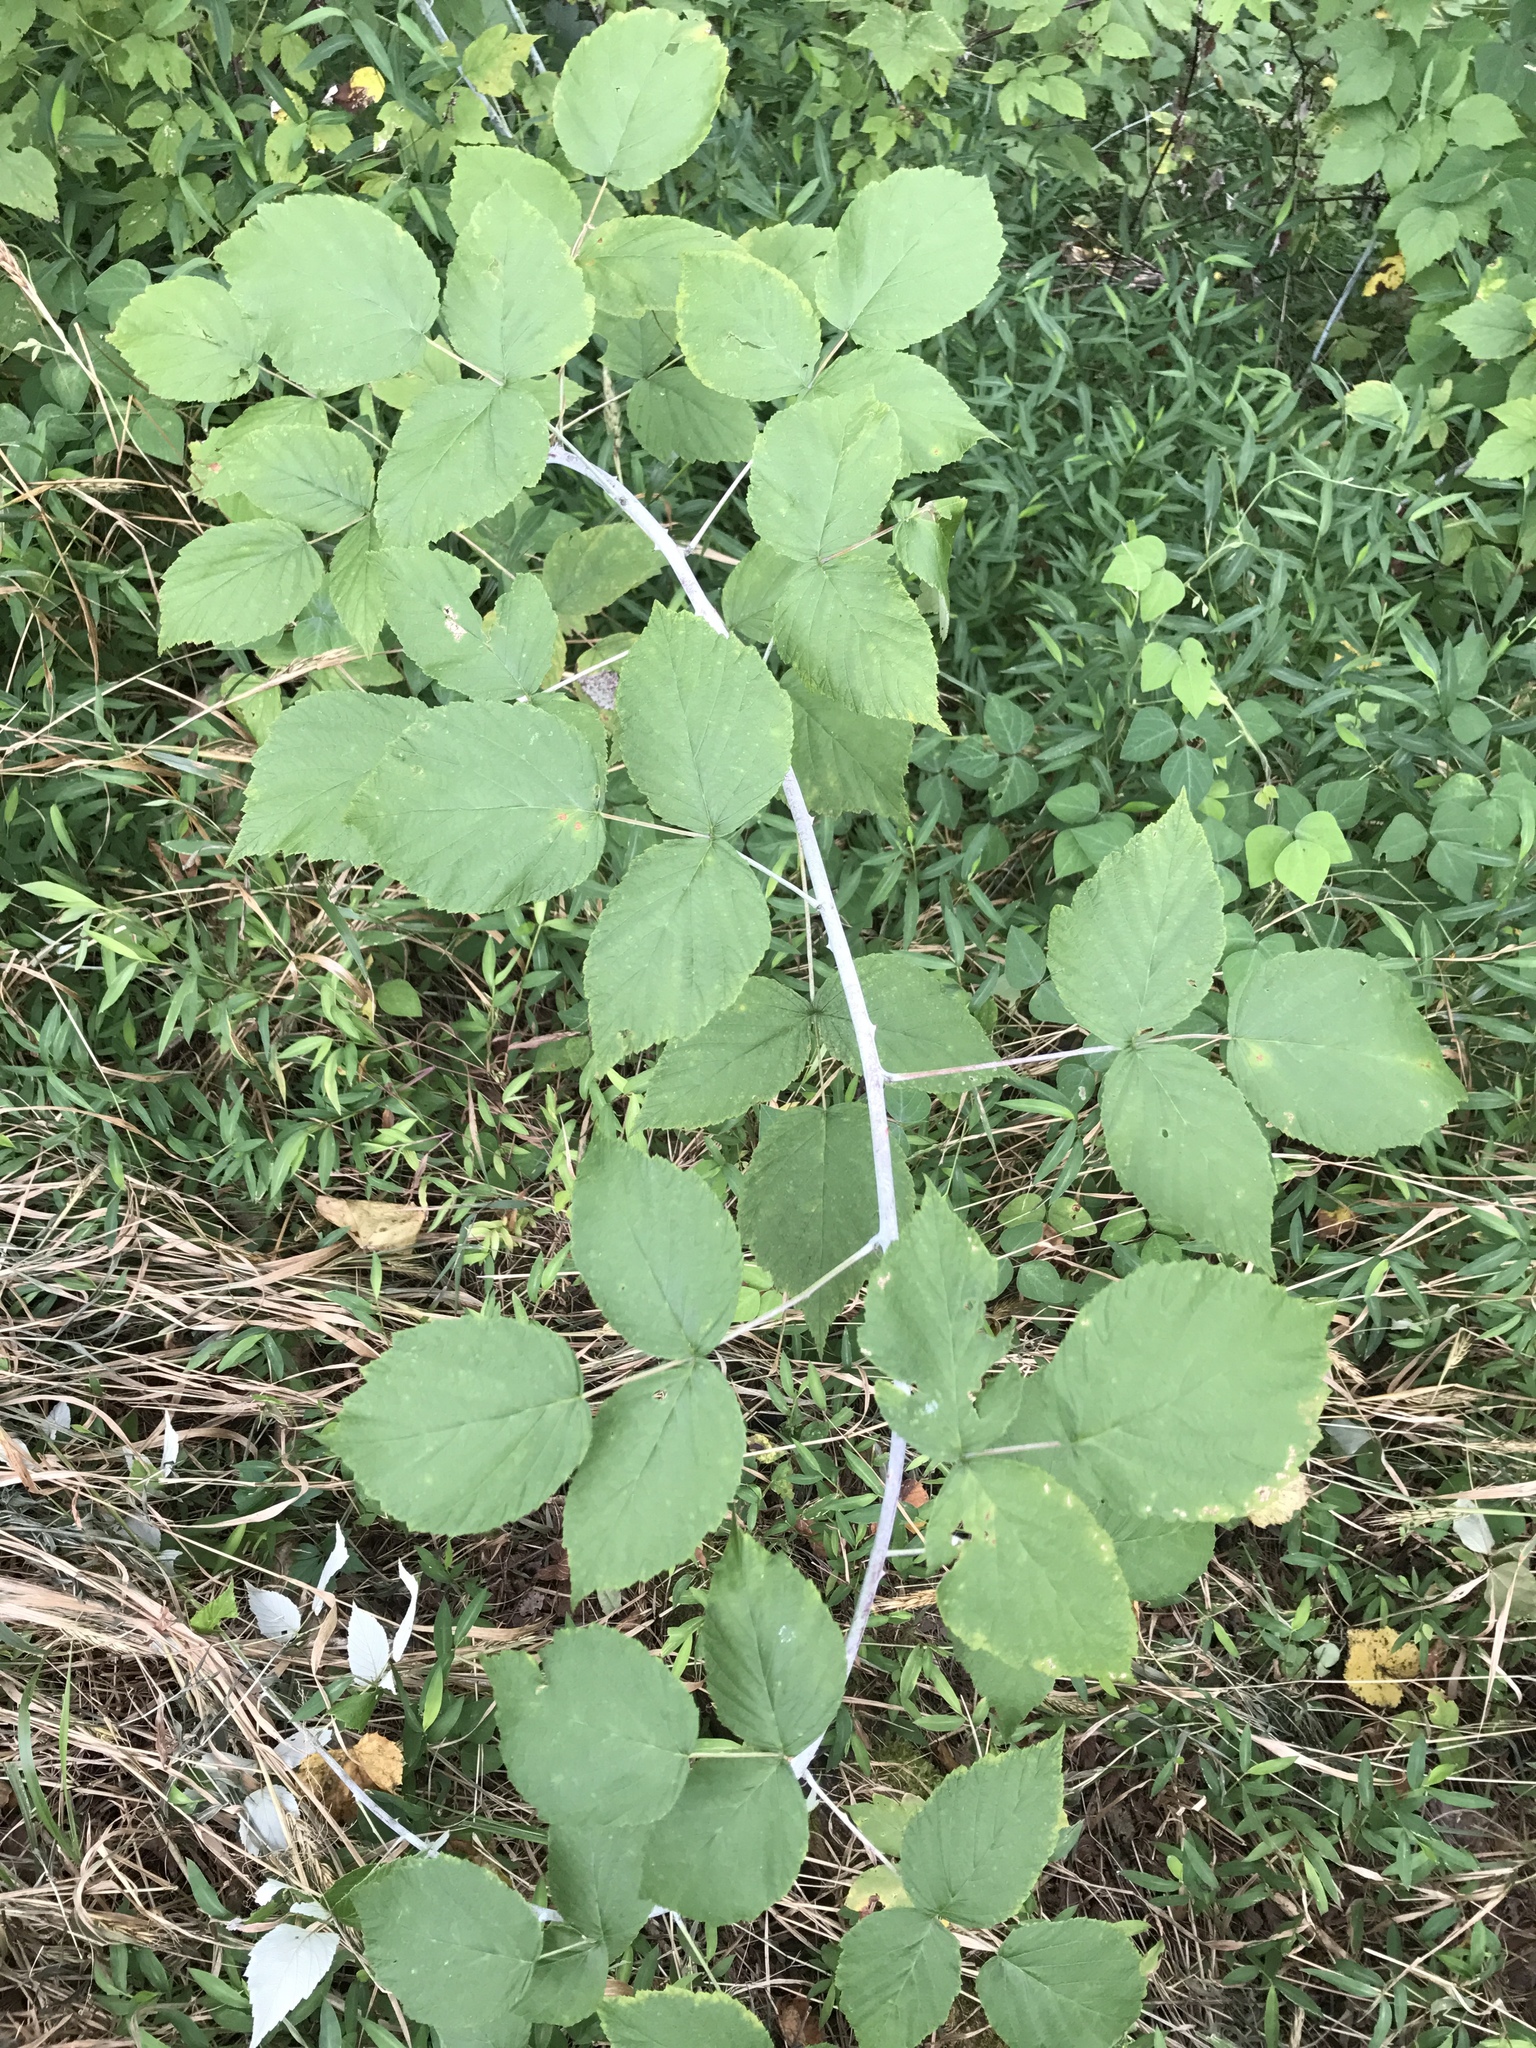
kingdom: Plantae
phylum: Tracheophyta
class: Magnoliopsida
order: Rosales
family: Rosaceae
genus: Rubus
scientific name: Rubus occidentalis
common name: Black raspberry
